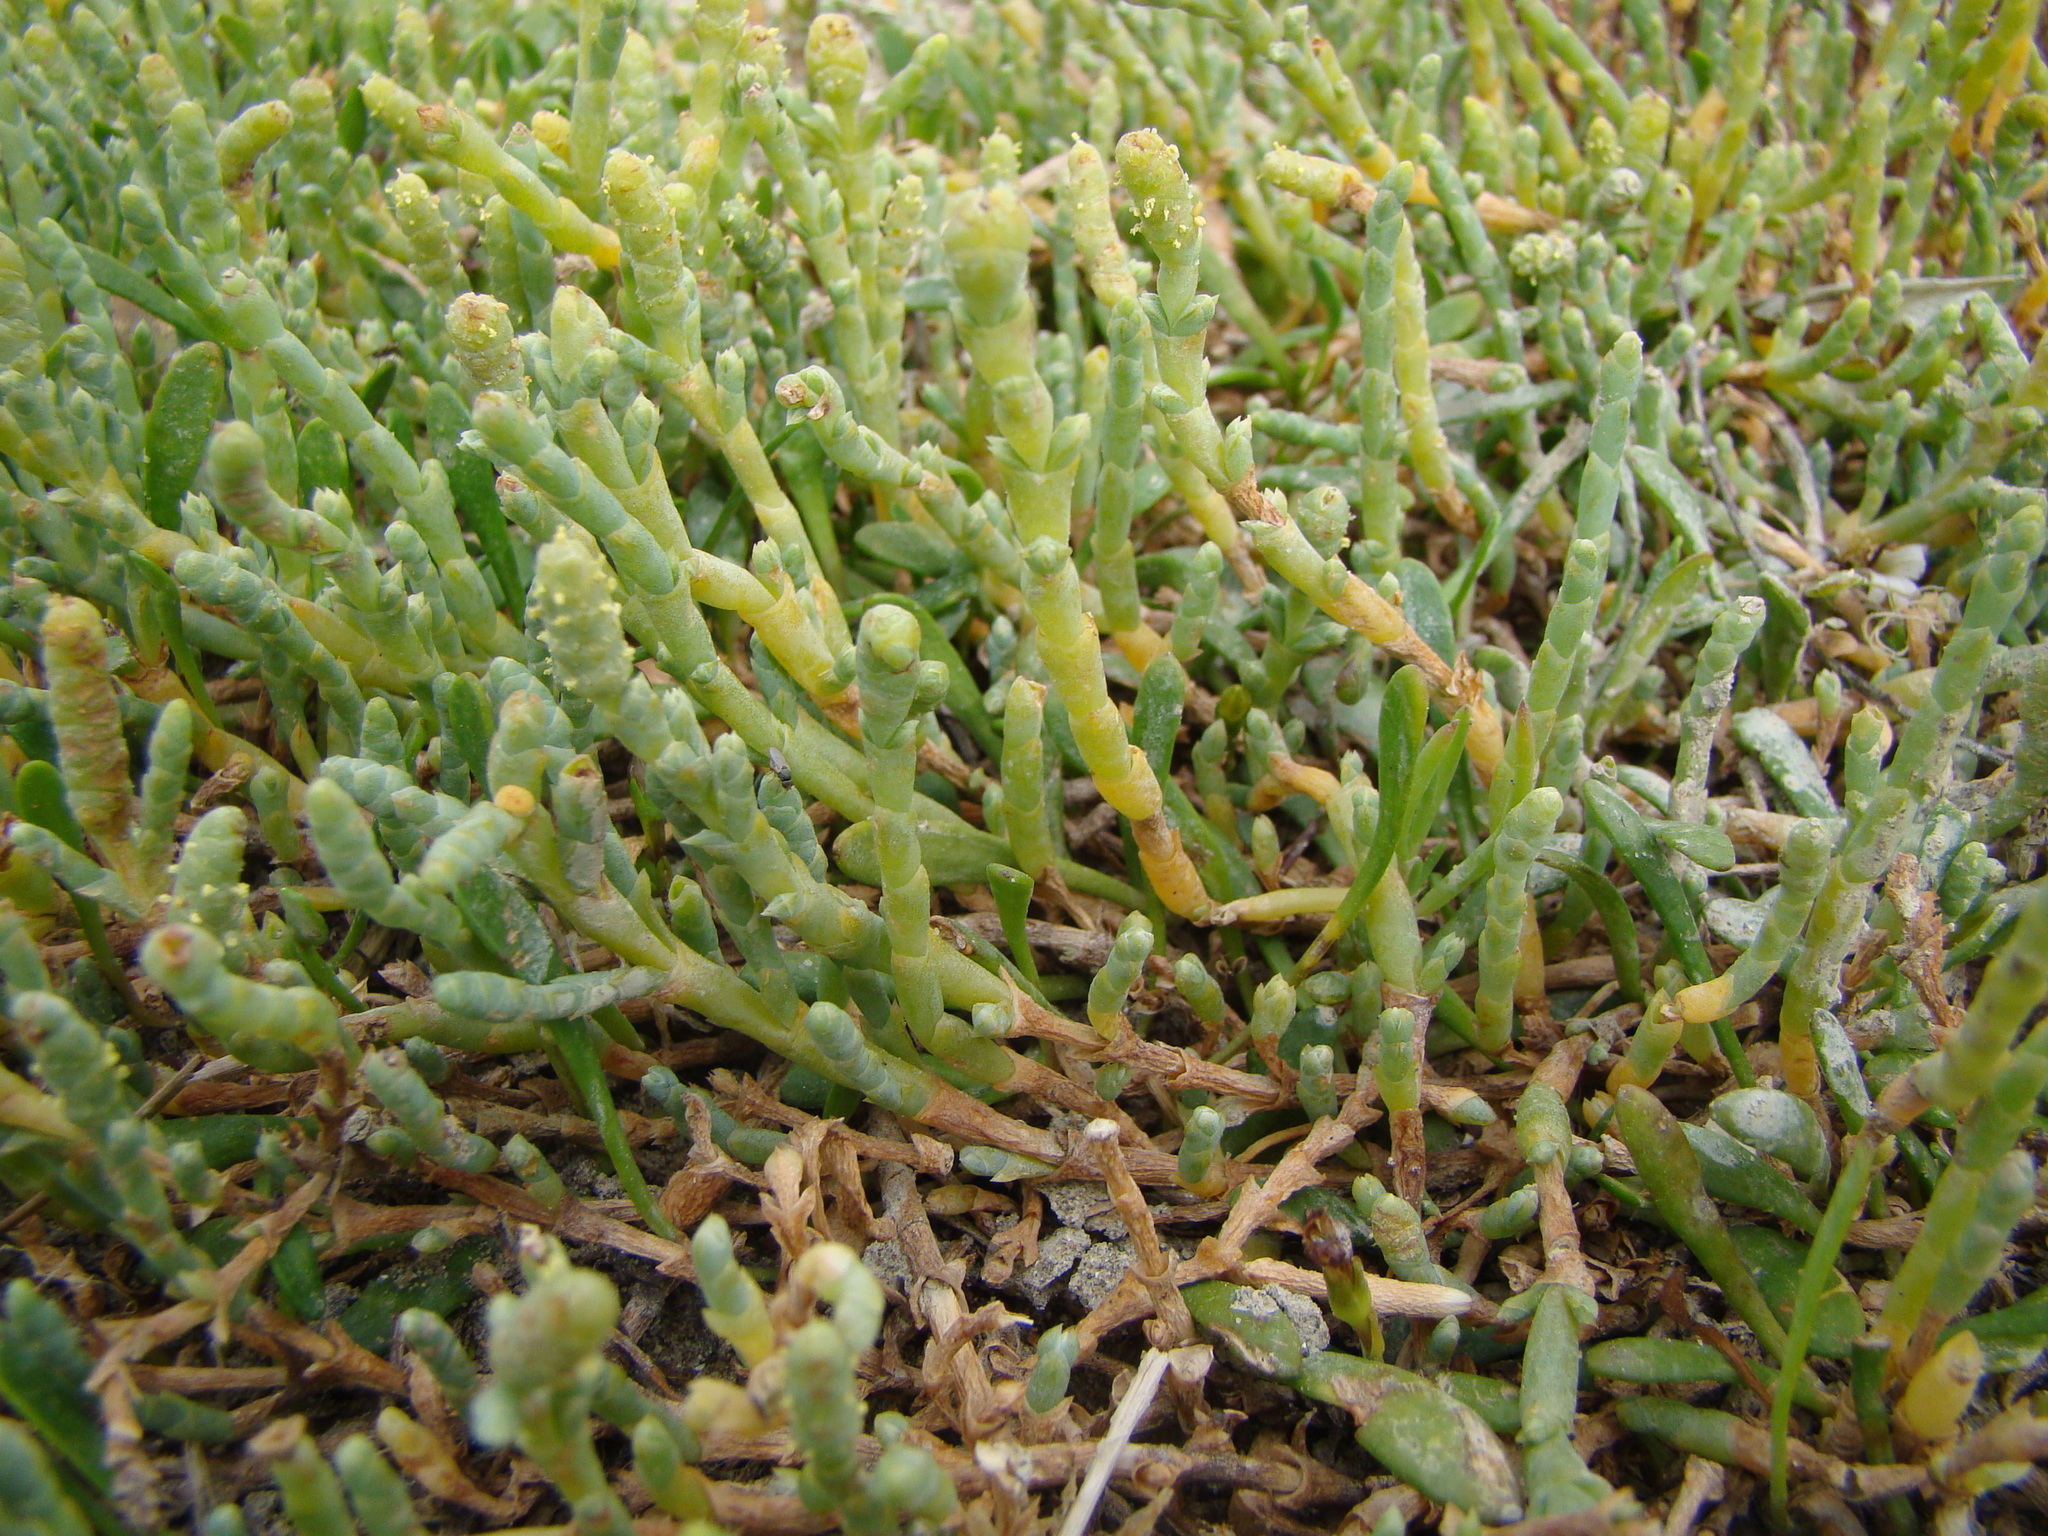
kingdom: Plantae
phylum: Tracheophyta
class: Magnoliopsida
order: Caryophyllales
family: Amaranthaceae
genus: Salicornia
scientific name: Salicornia quinqueflora
